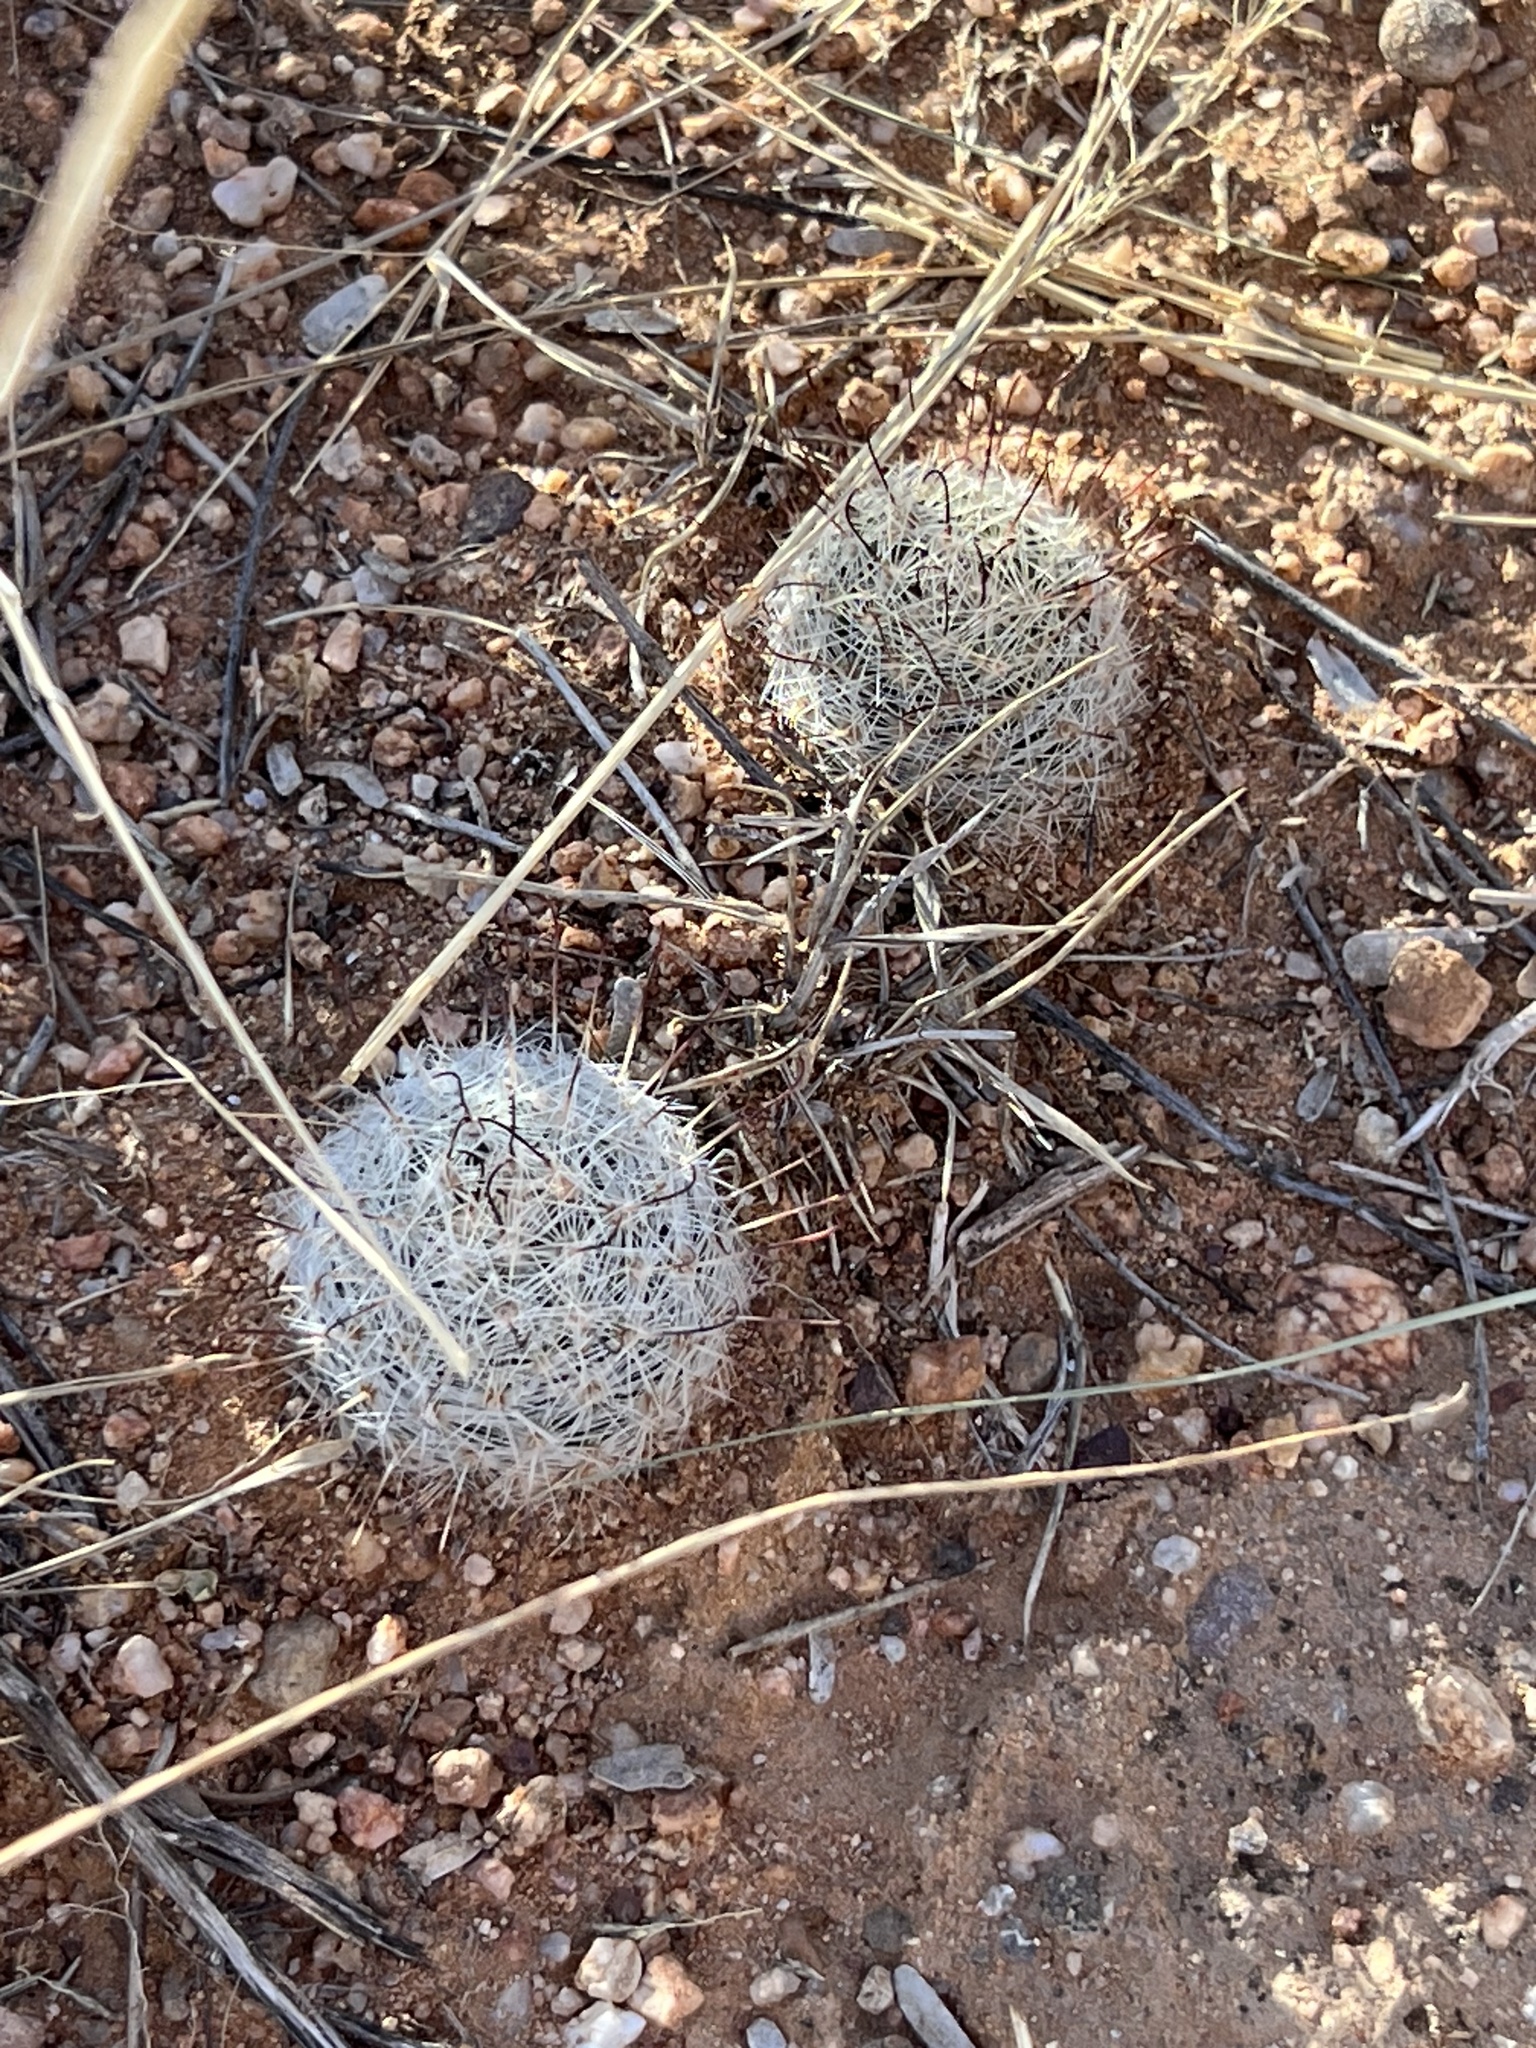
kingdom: Plantae
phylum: Tracheophyta
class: Magnoliopsida
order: Caryophyllales
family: Cactaceae
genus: Cochemiea
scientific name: Cochemiea grahamii
